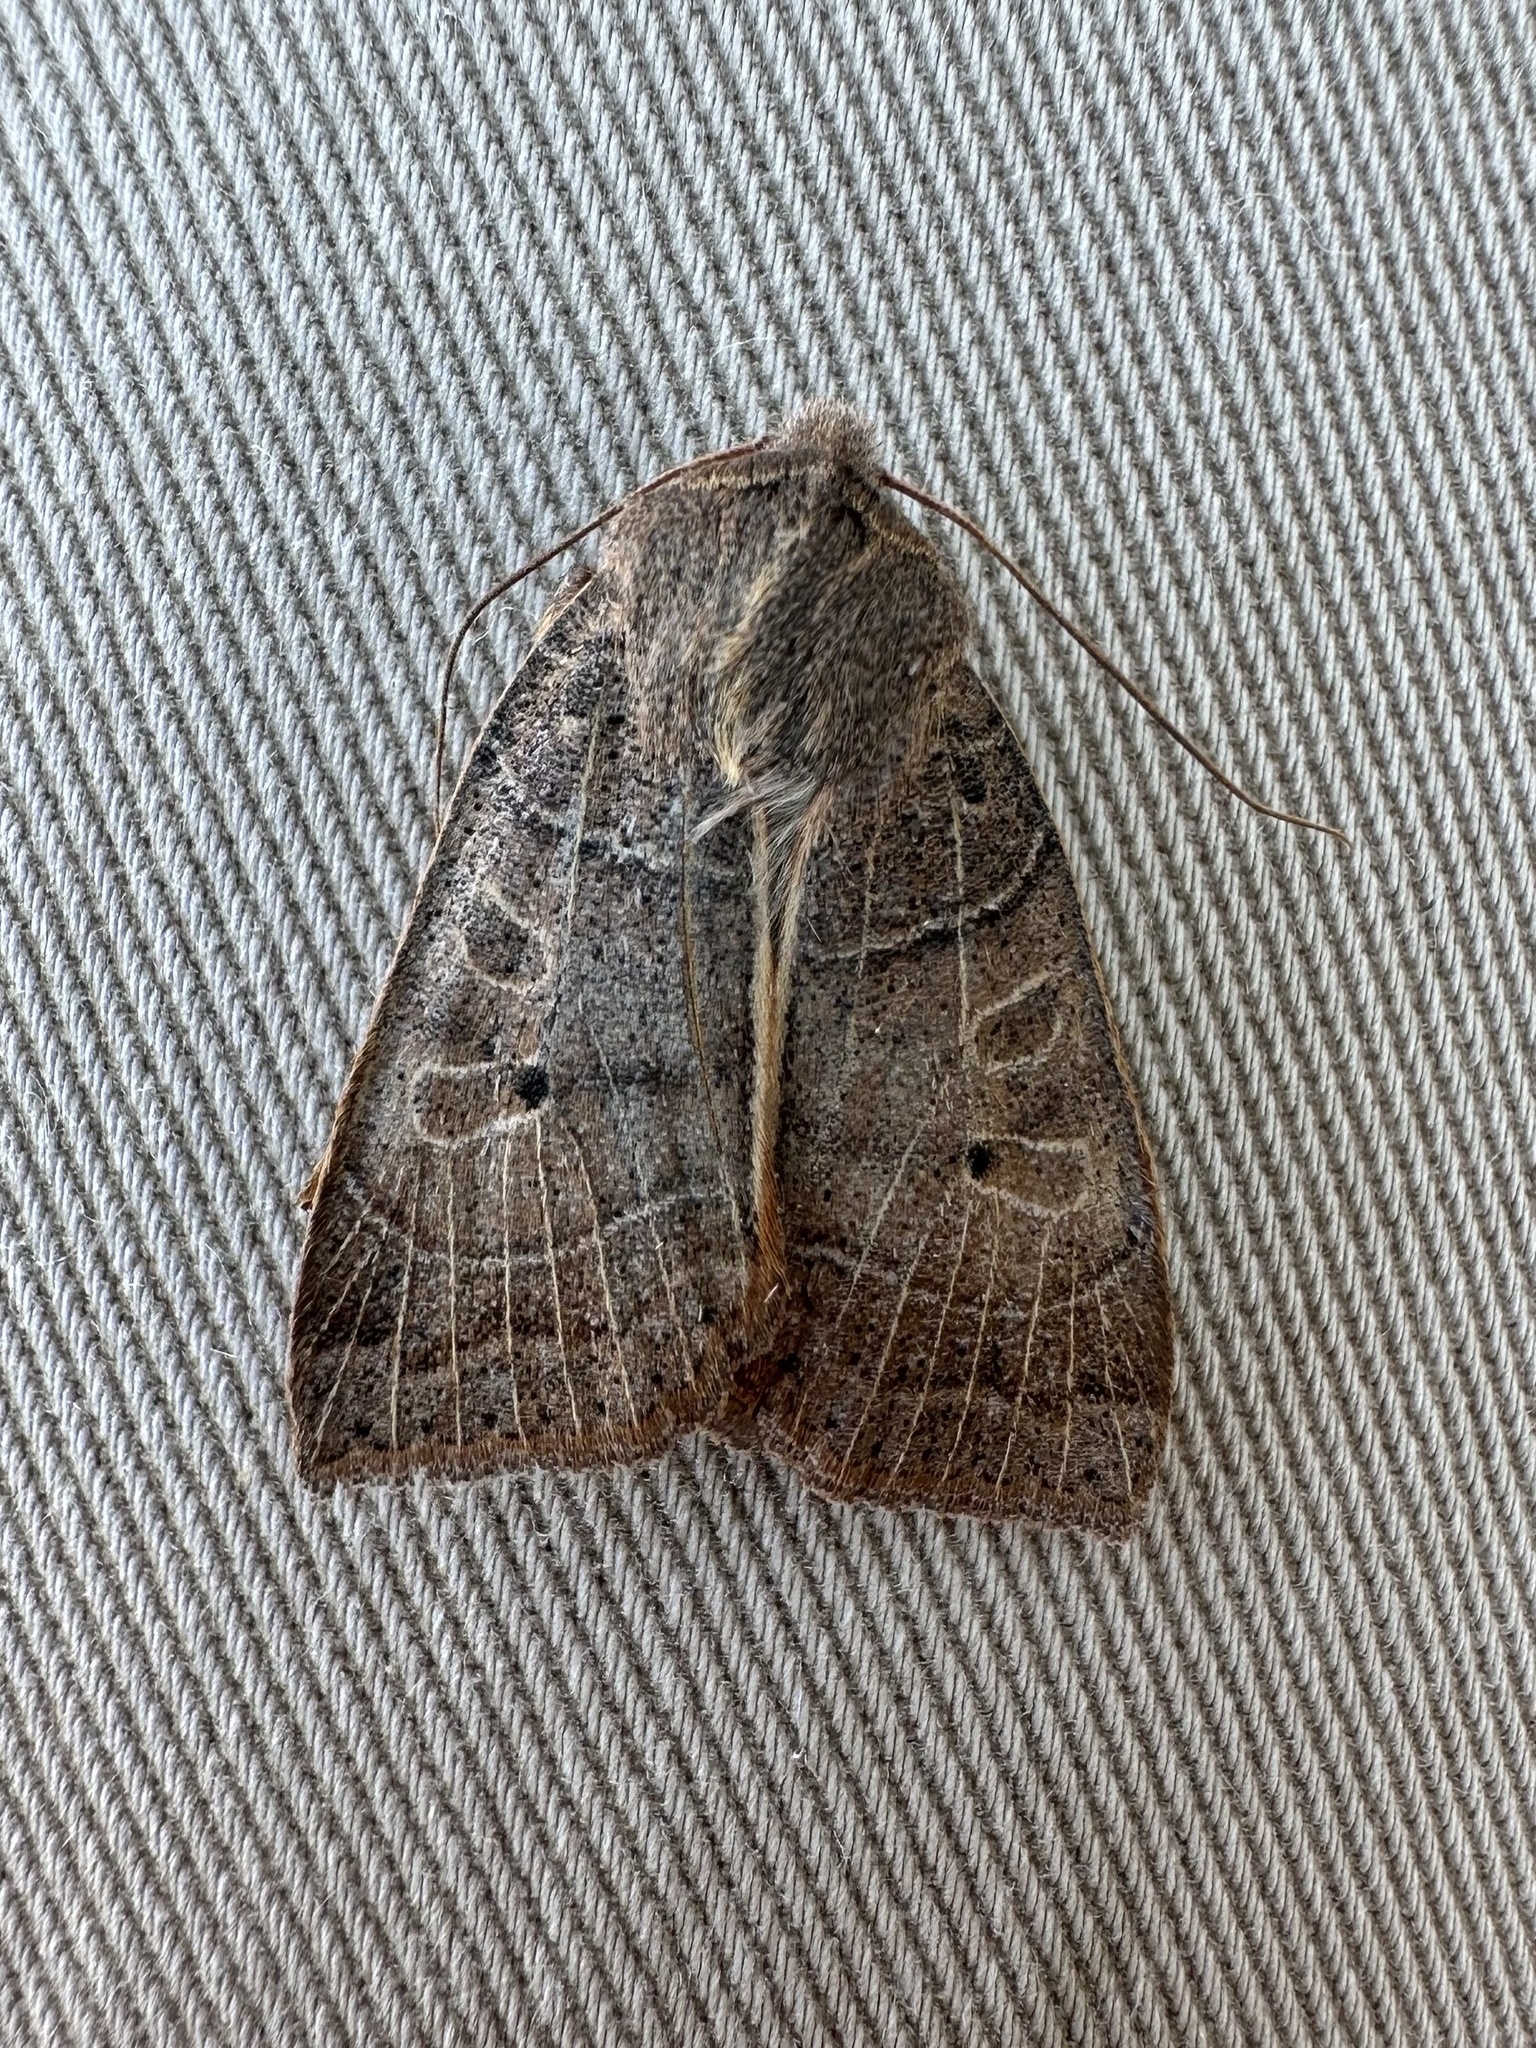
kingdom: Animalia
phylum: Arthropoda
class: Insecta
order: Lepidoptera
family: Noctuidae
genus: Chaetaglaea
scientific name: Chaetaglaea sericea
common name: Silky sallow
